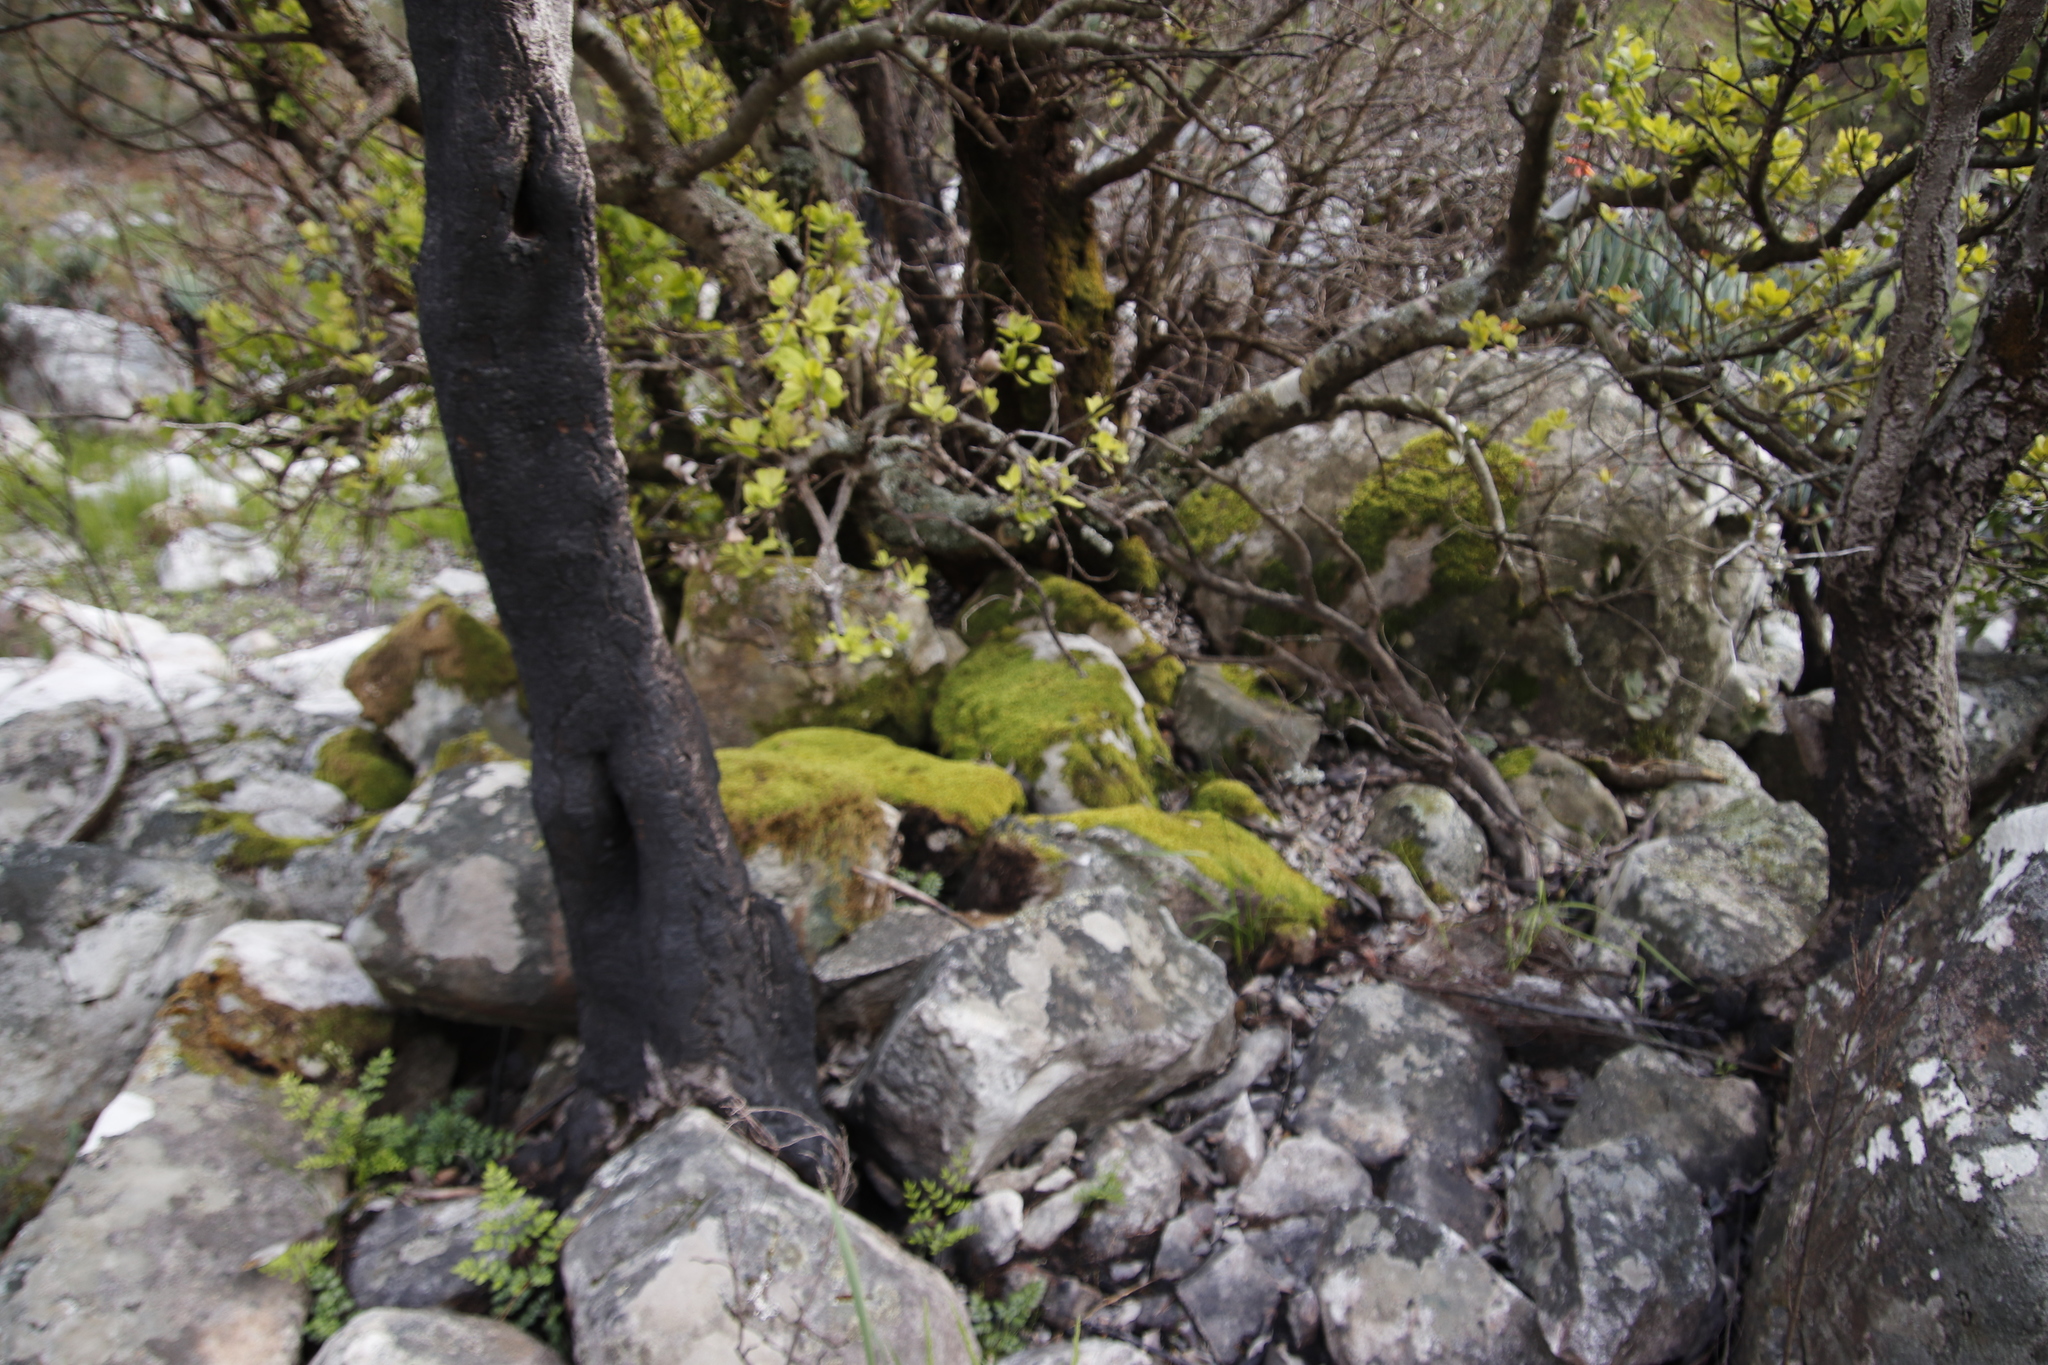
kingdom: Plantae
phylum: Tracheophyta
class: Magnoliopsida
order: Sapindales
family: Anacardiaceae
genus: Heeria
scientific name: Heeria argentea
